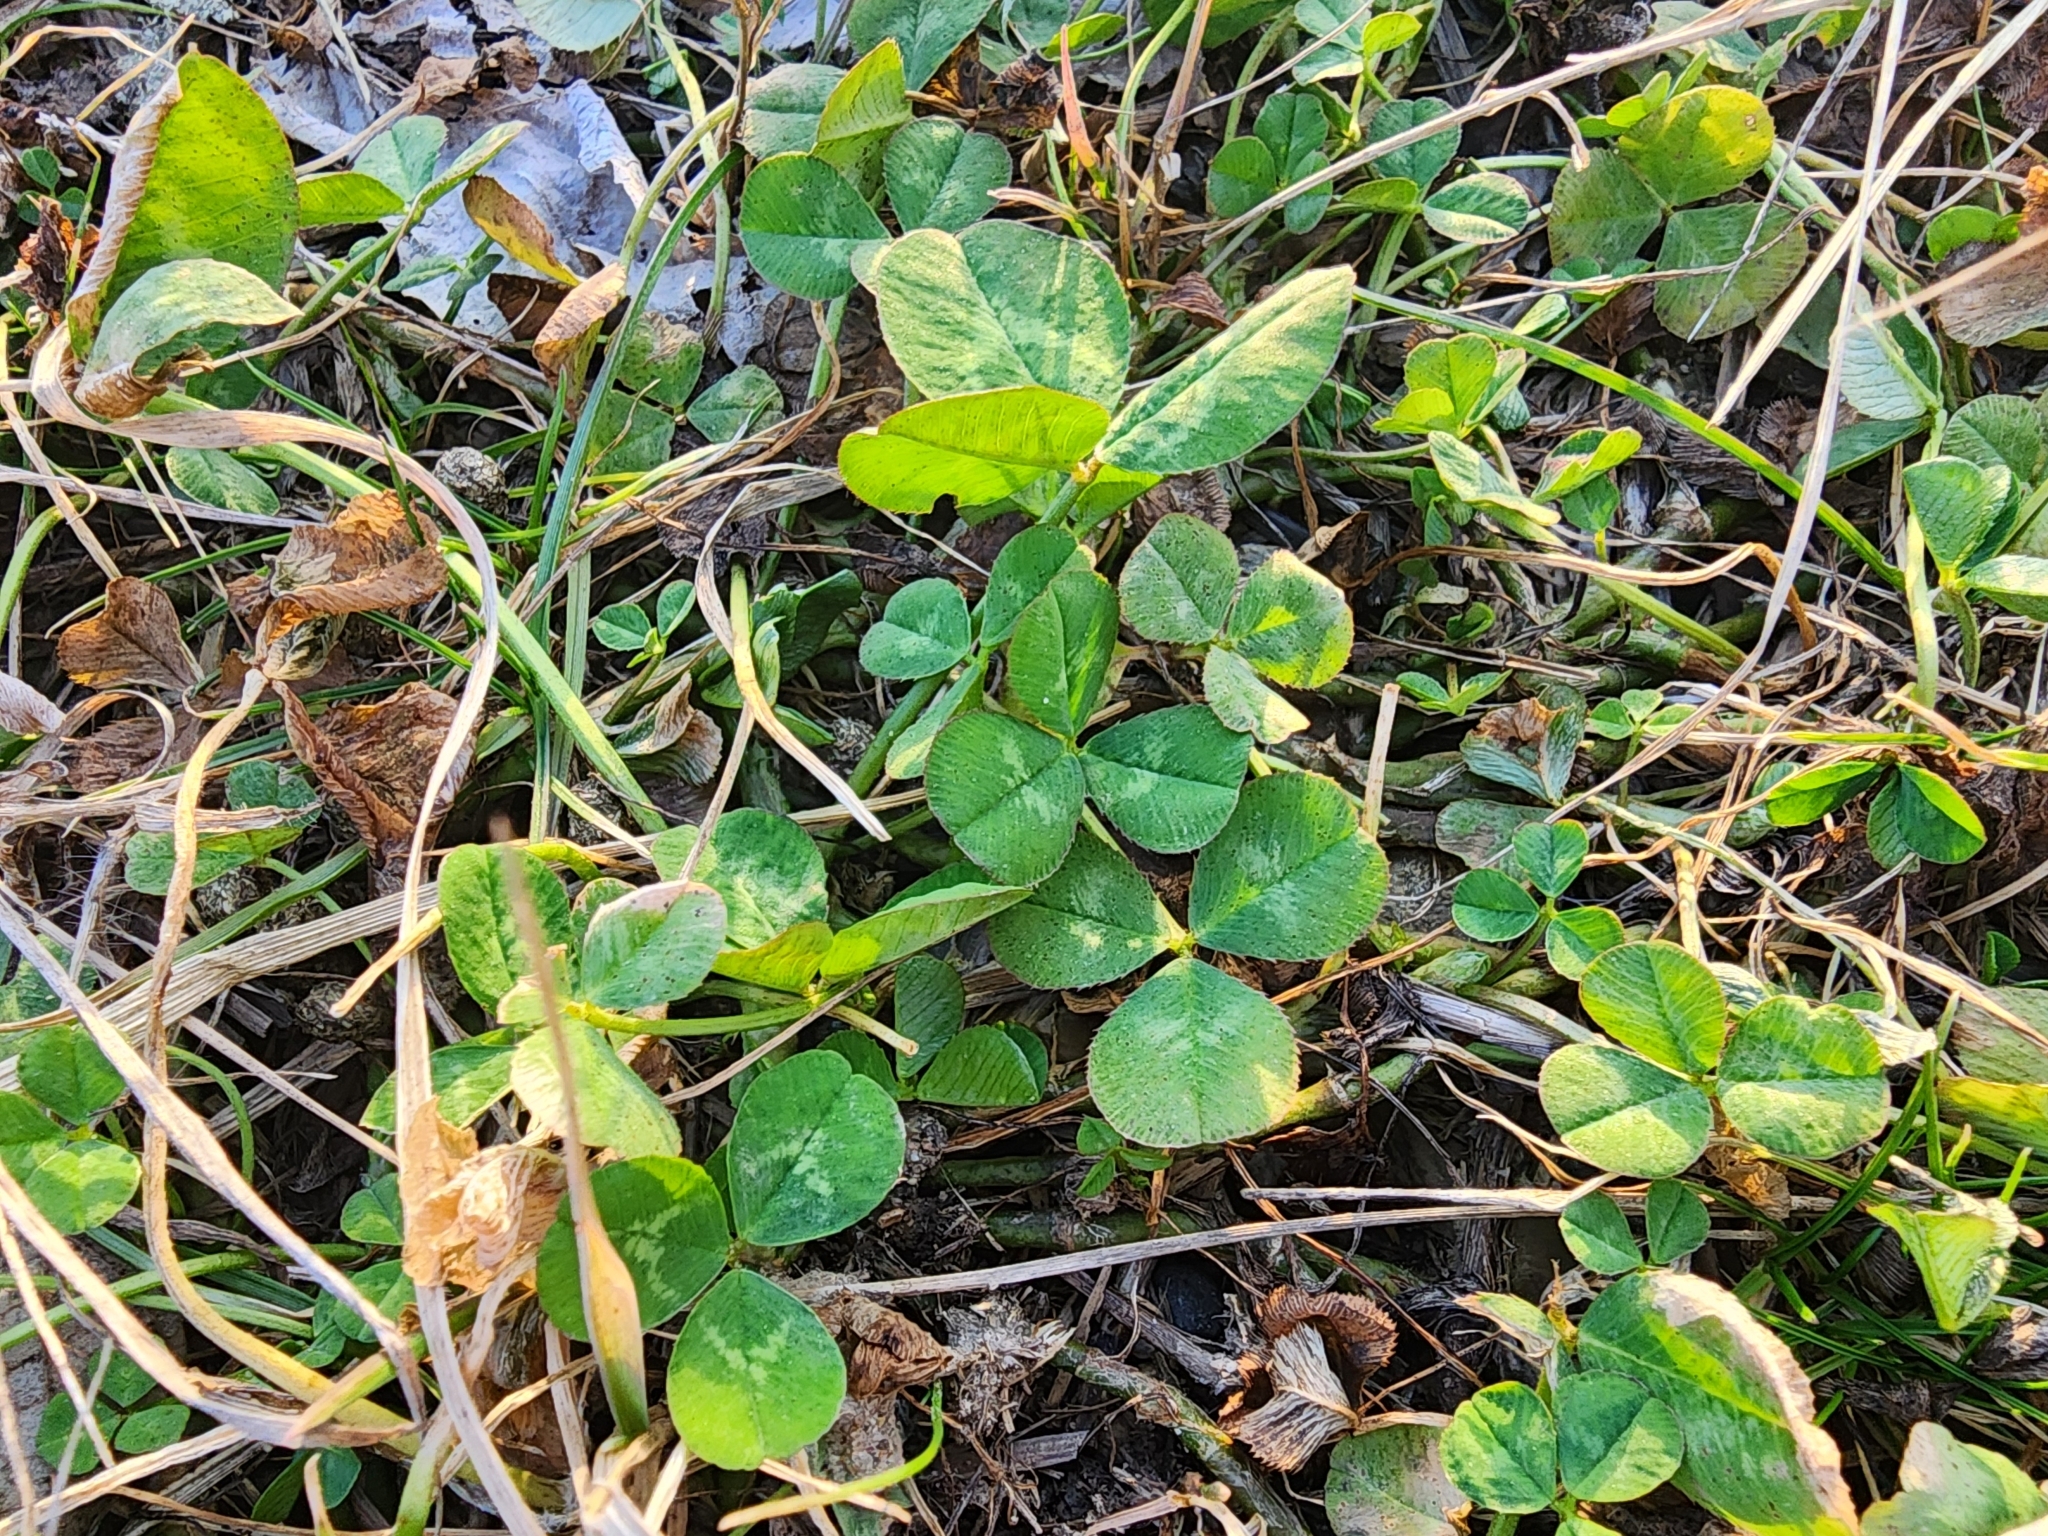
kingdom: Plantae
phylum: Tracheophyta
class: Magnoliopsida
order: Fabales
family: Fabaceae
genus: Trifolium
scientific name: Trifolium repens
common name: White clover
